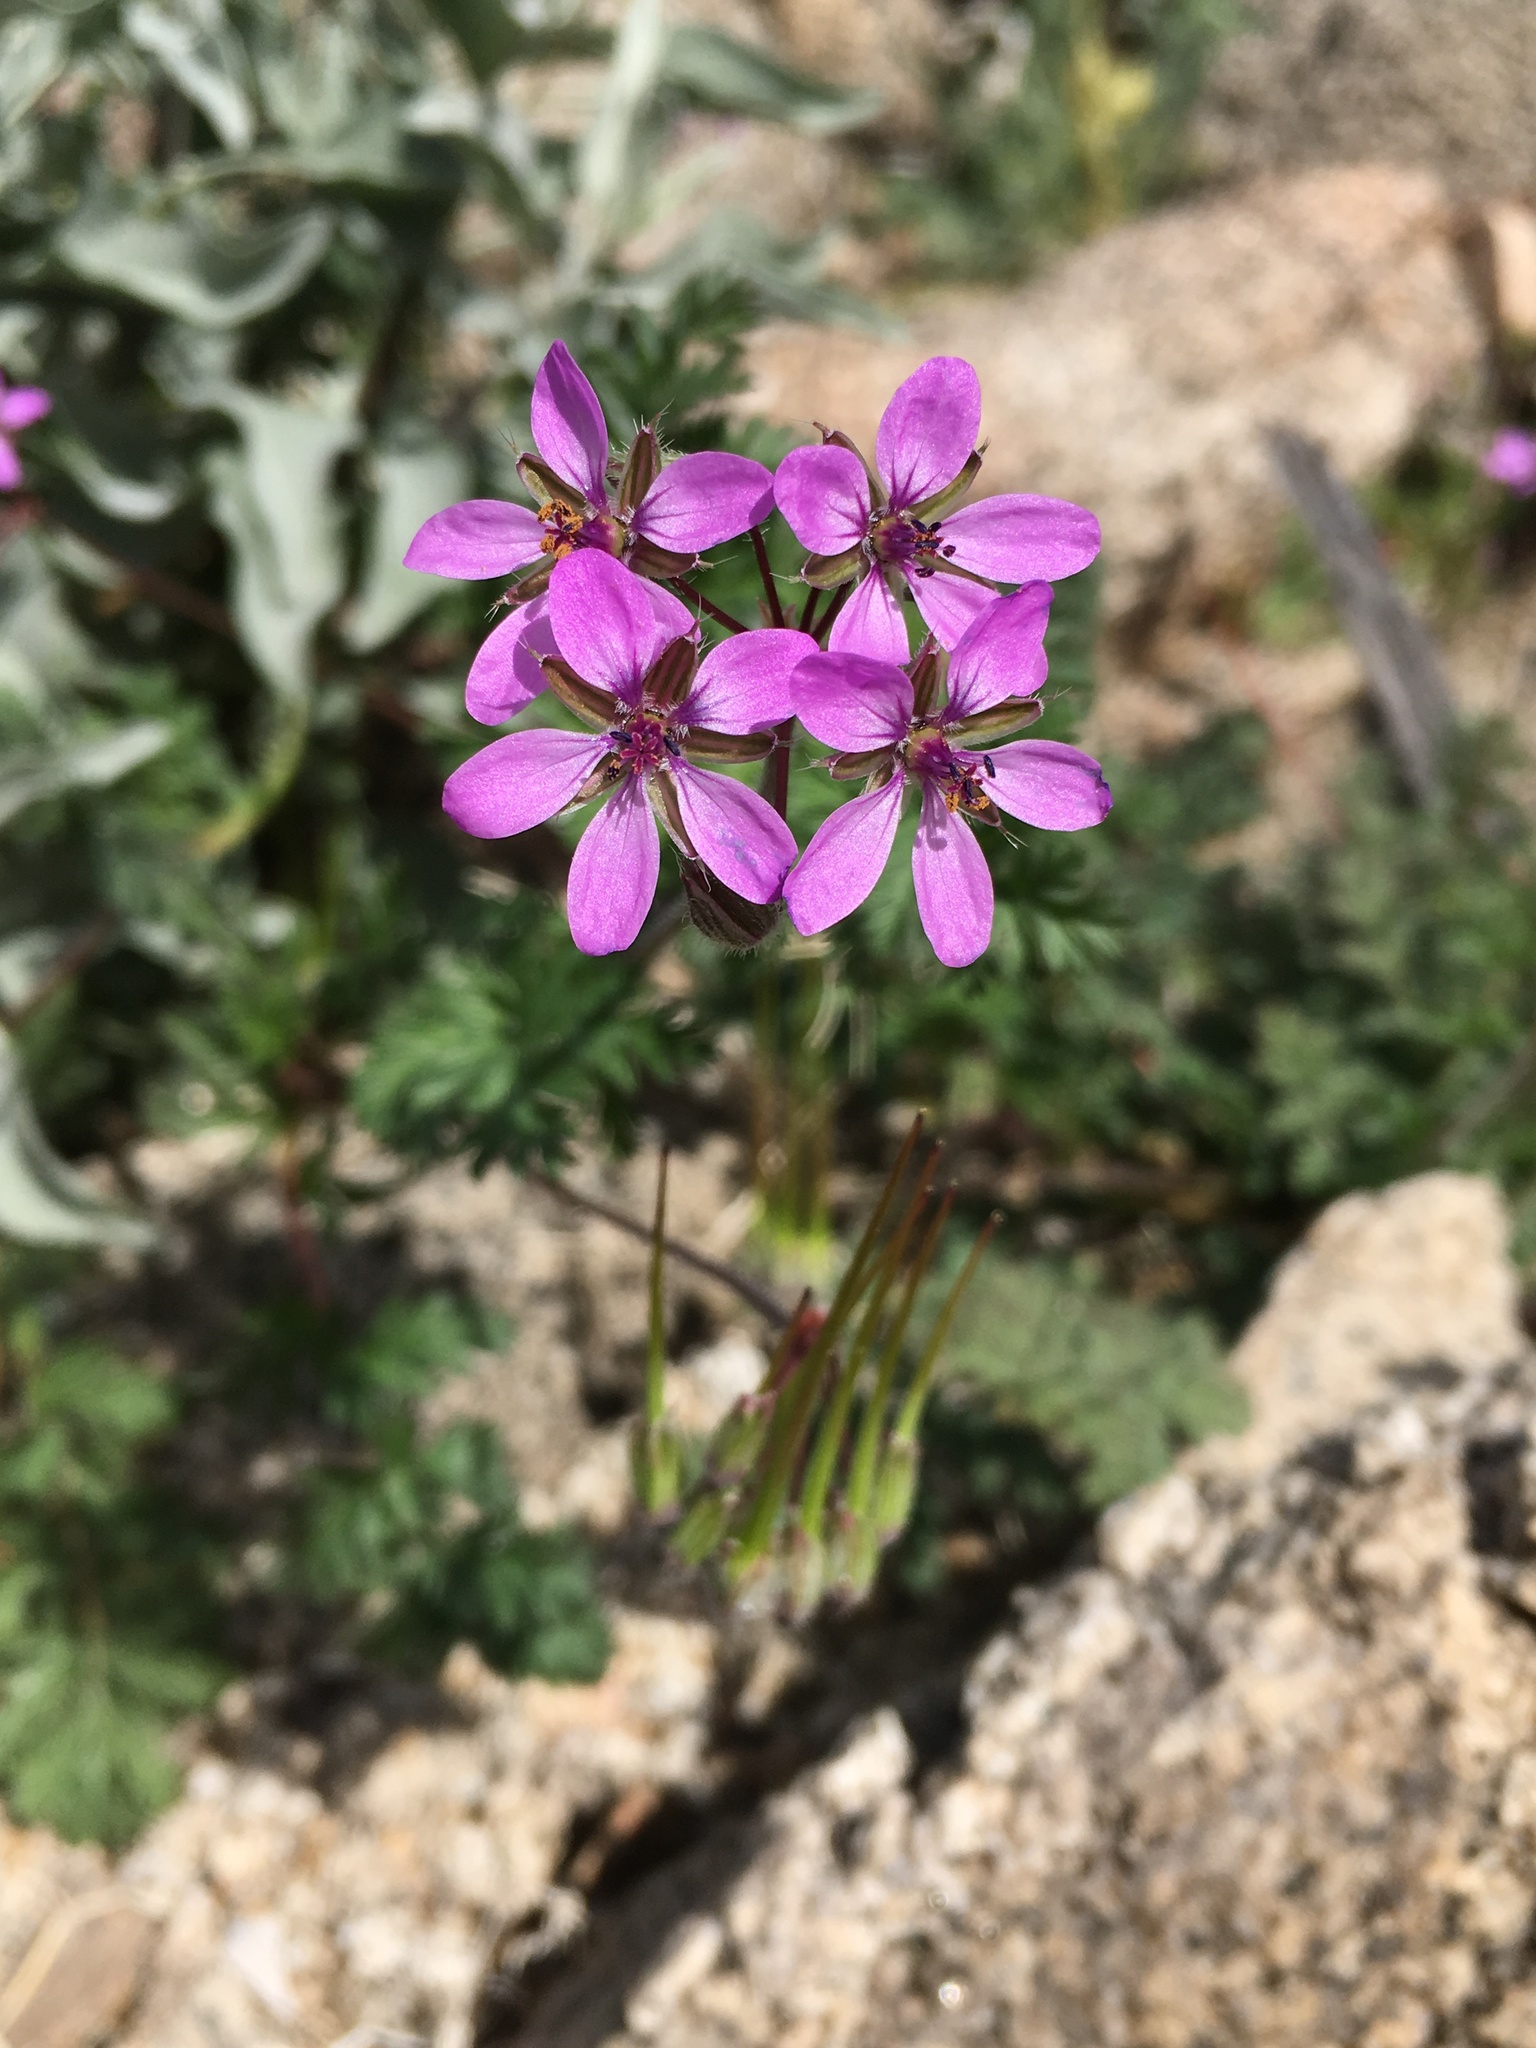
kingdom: Plantae
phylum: Tracheophyta
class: Magnoliopsida
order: Geraniales
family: Geraniaceae
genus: Erodium
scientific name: Erodium cicutarium
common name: Common stork's-bill
